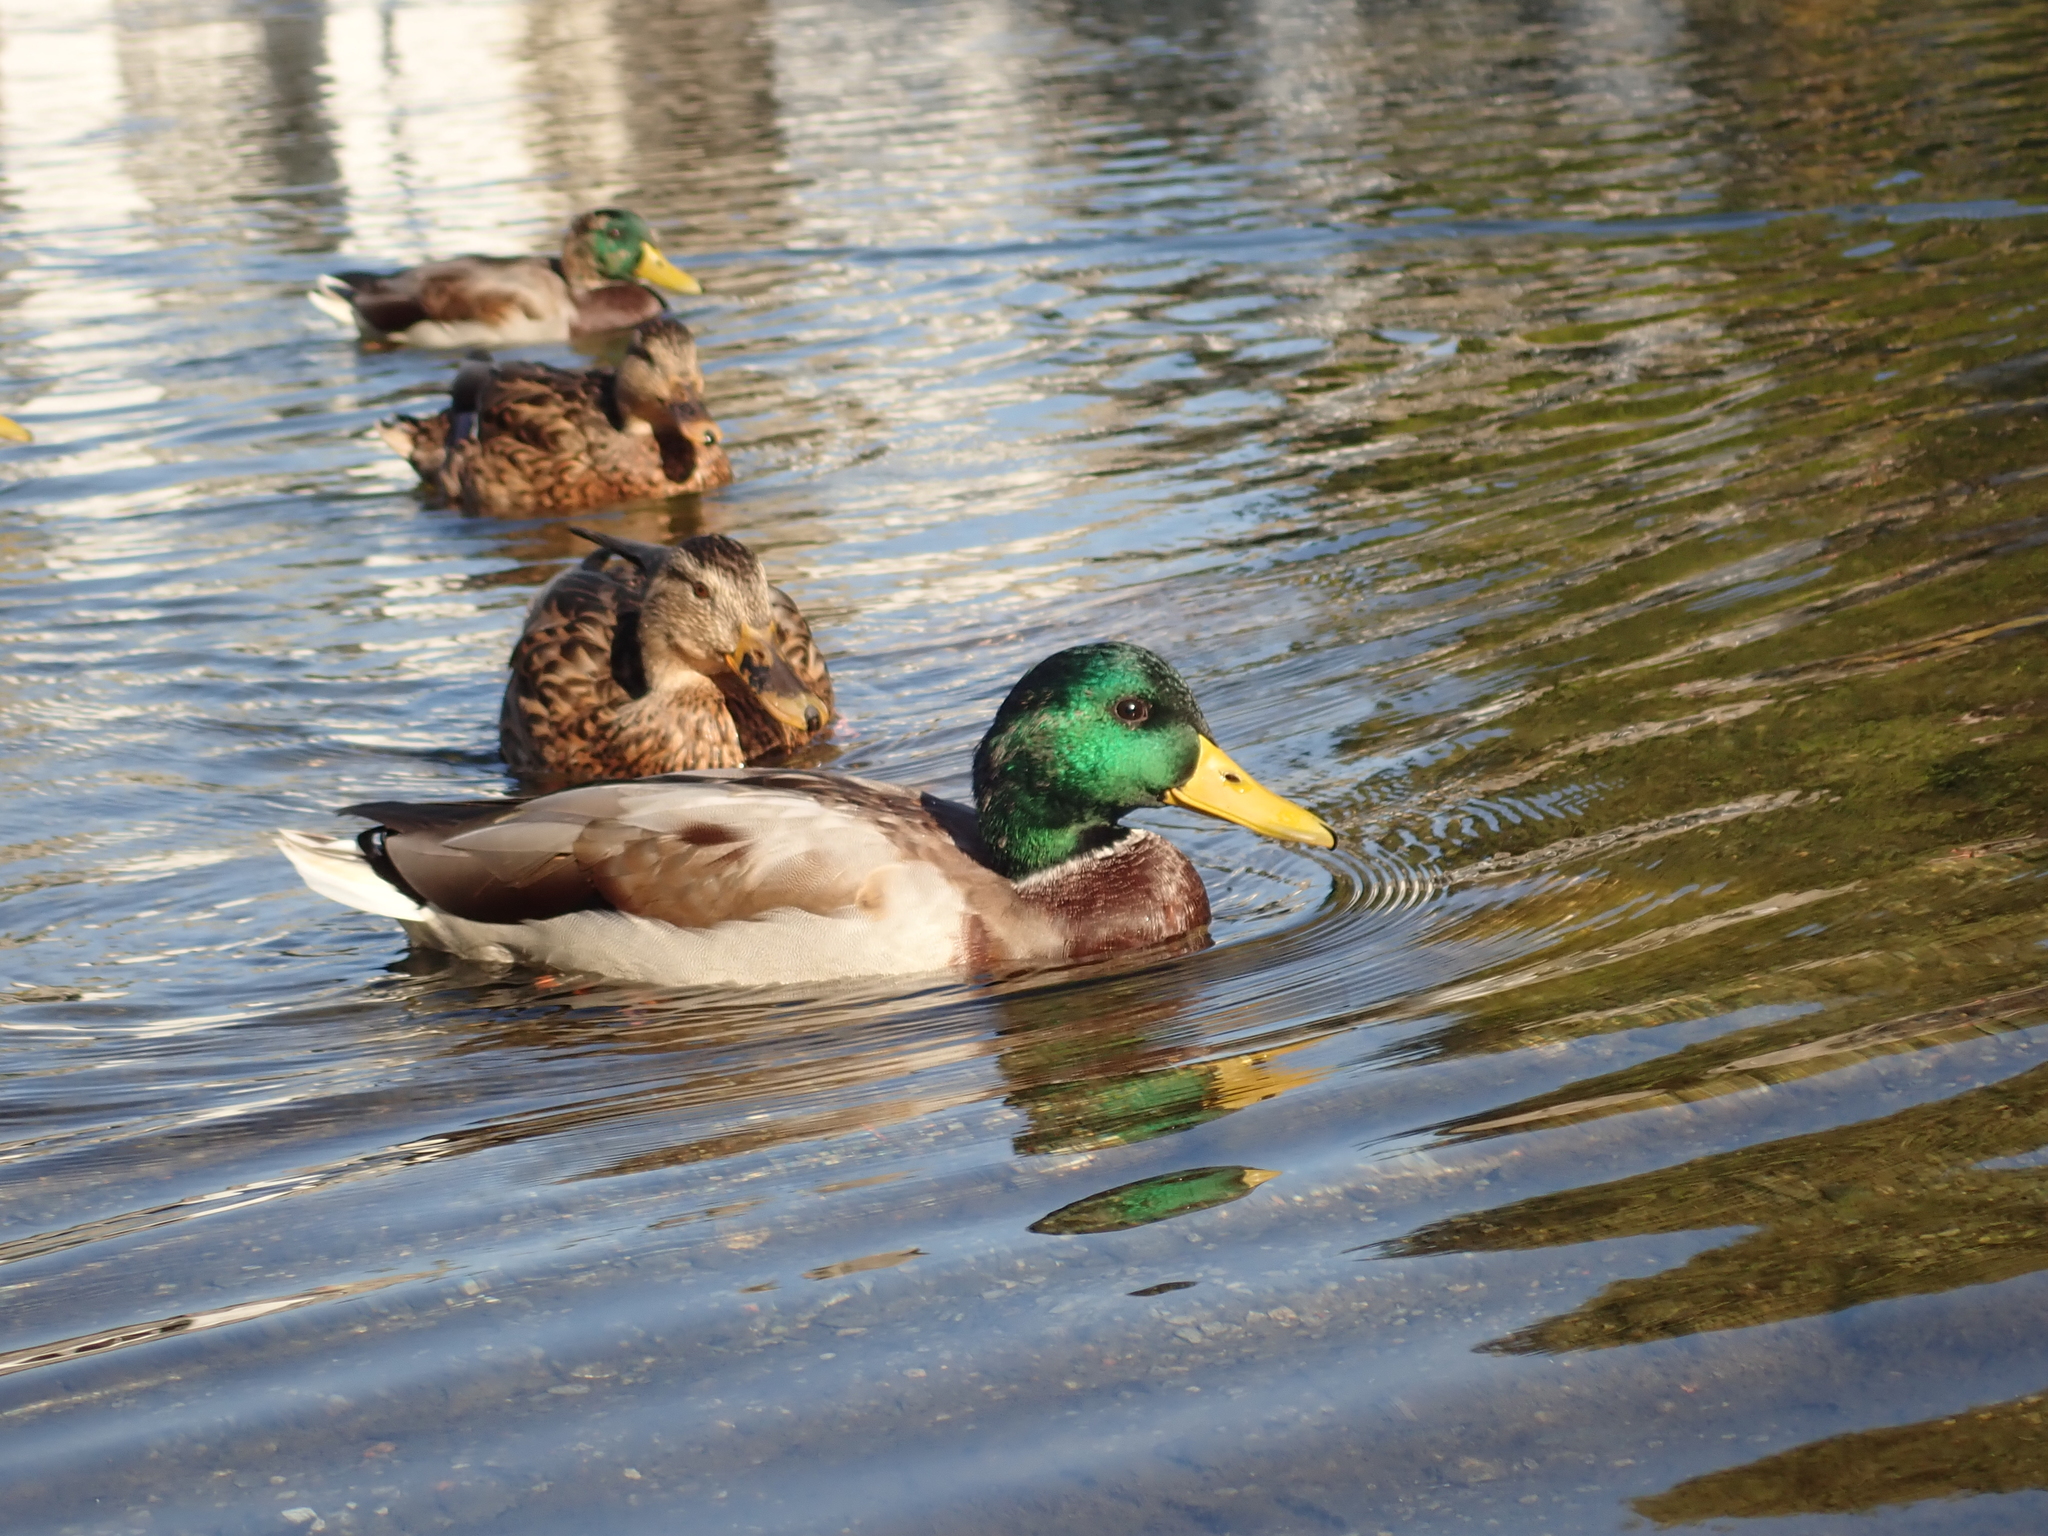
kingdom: Animalia
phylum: Chordata
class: Aves
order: Anseriformes
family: Anatidae
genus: Anas
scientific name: Anas platyrhynchos
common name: Mallard
